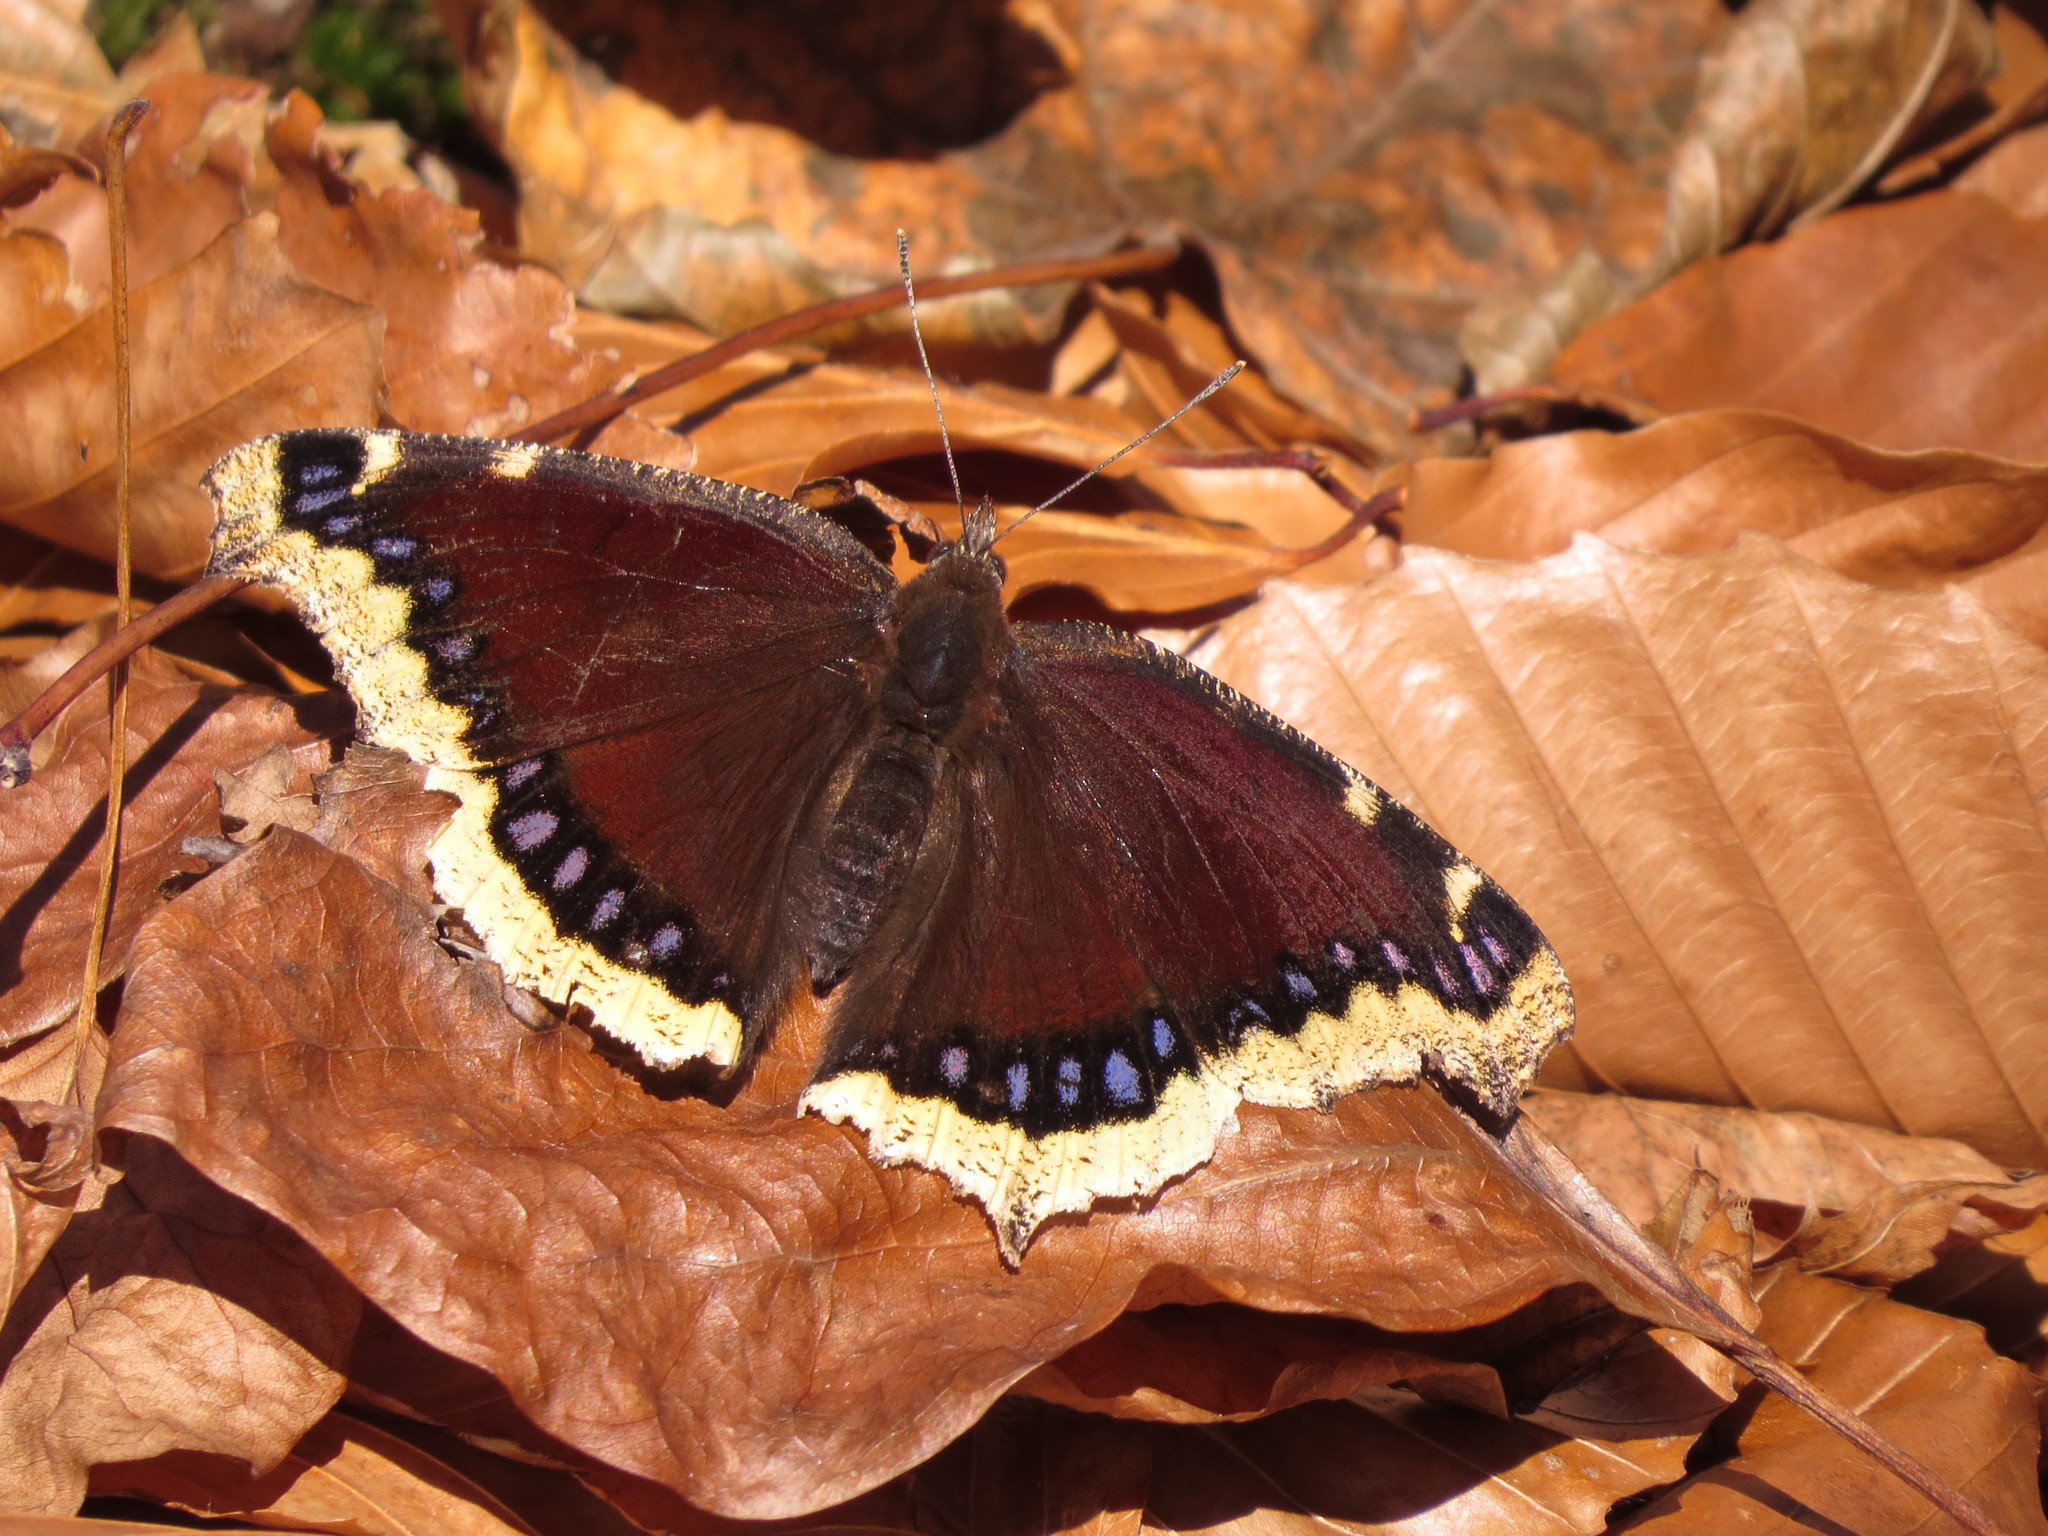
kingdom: Animalia
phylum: Arthropoda
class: Insecta
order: Lepidoptera
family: Nymphalidae
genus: Nymphalis
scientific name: Nymphalis antiopa
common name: Camberwell beauty
